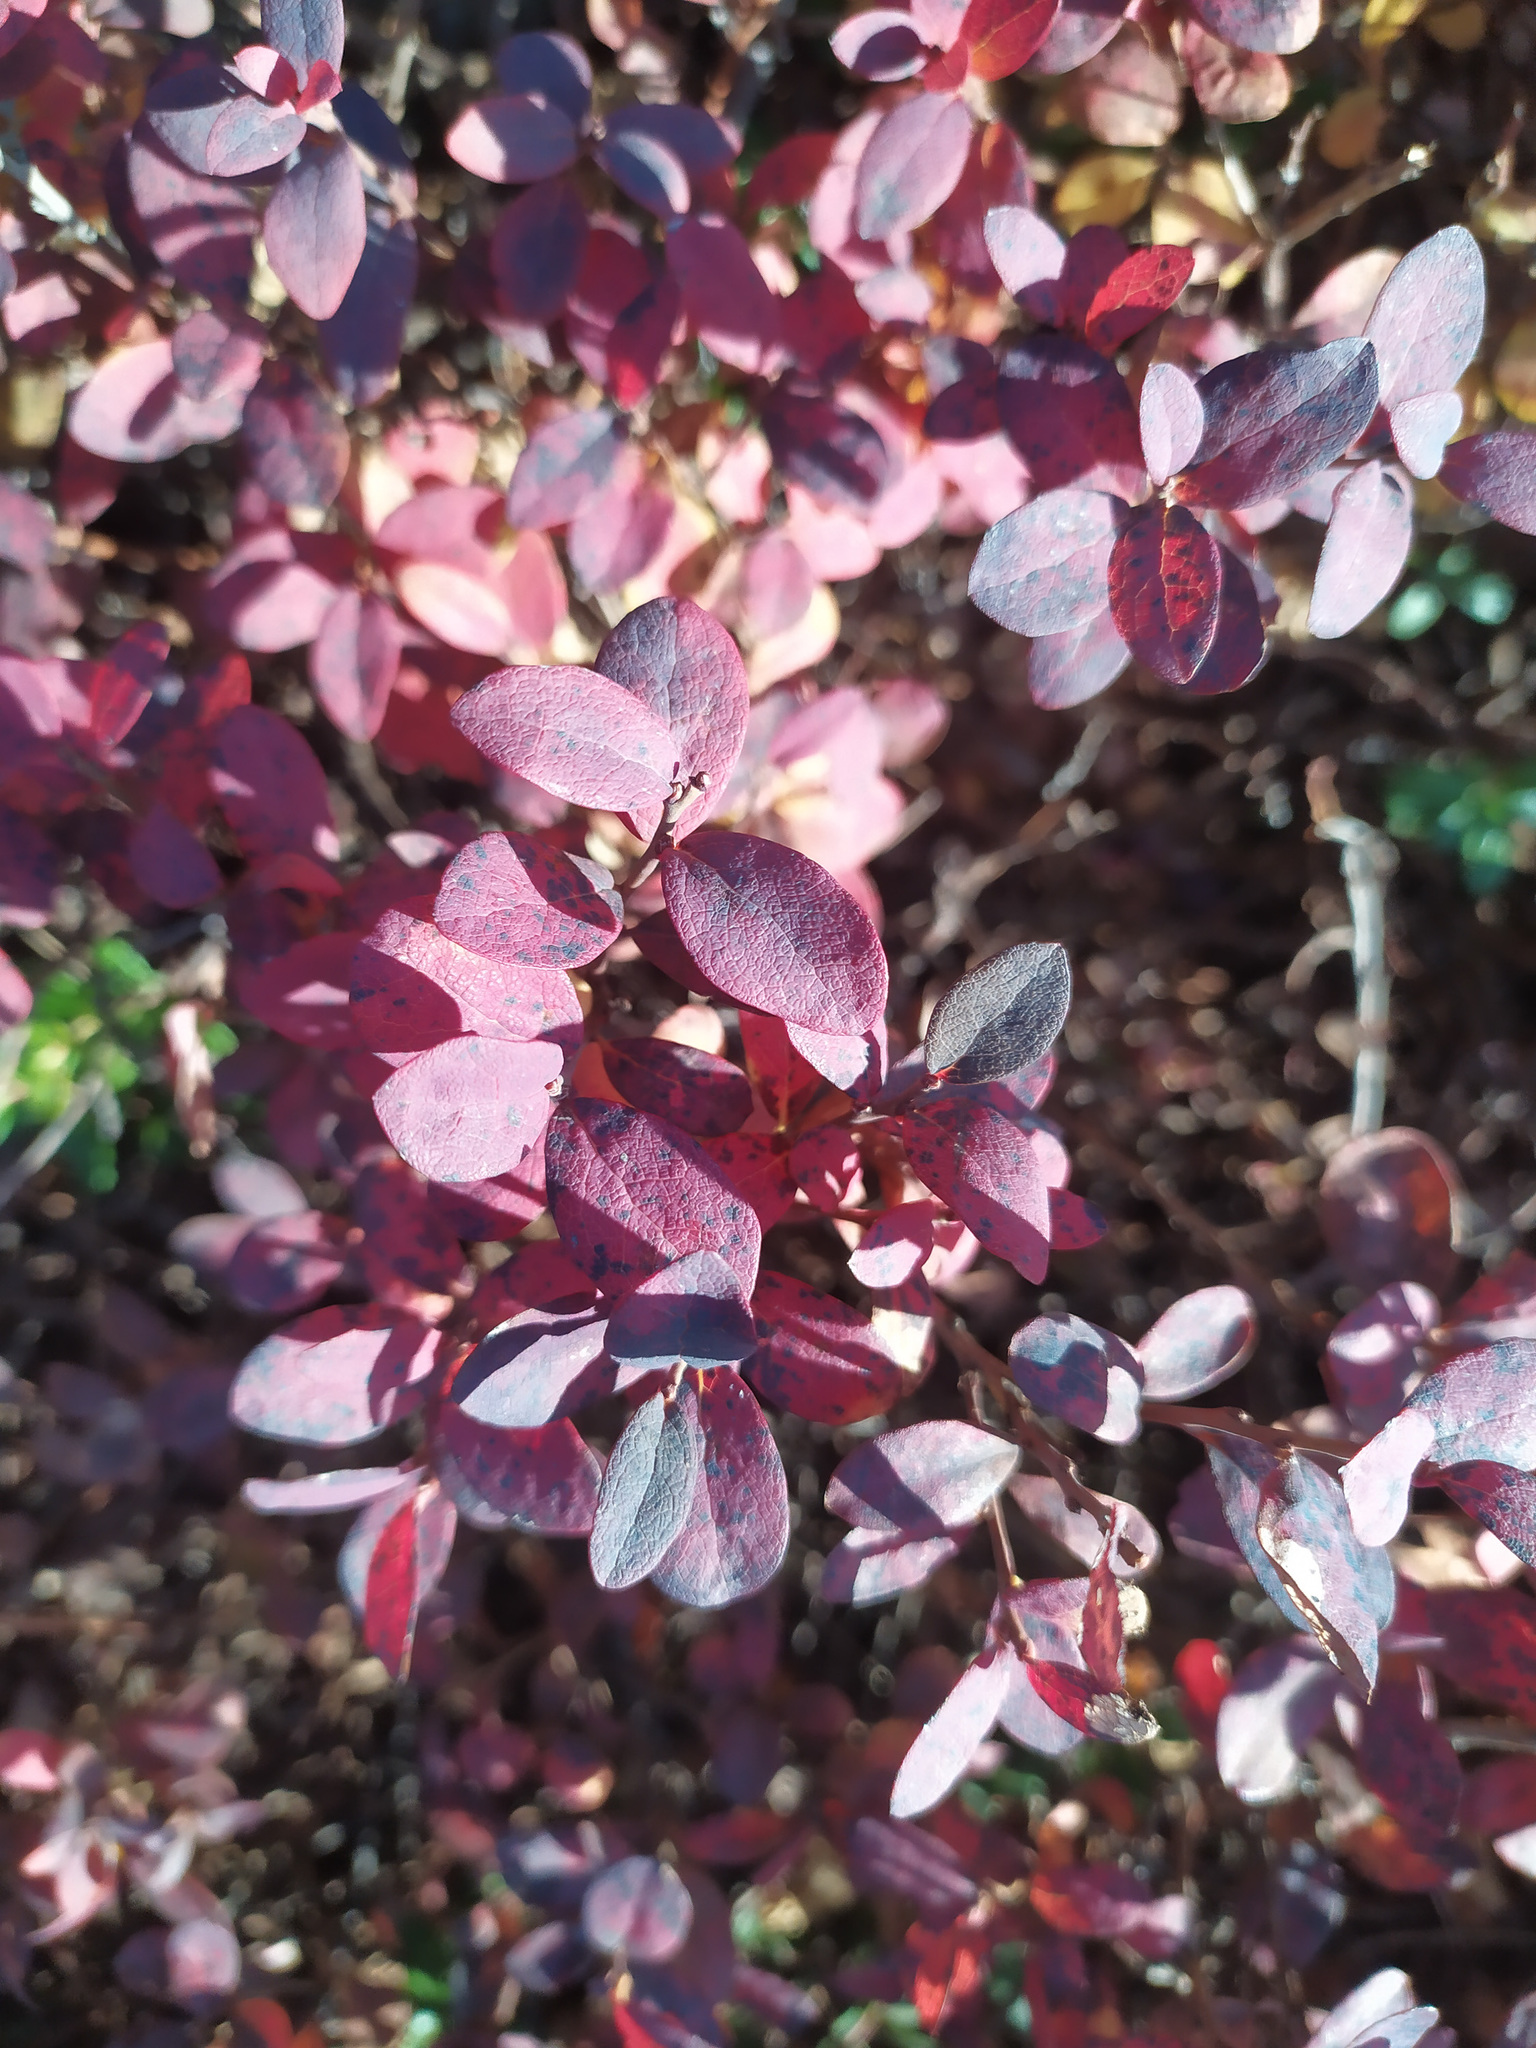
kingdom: Plantae
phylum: Tracheophyta
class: Magnoliopsida
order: Ericales
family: Ericaceae
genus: Vaccinium
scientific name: Vaccinium uliginosum
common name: Bog bilberry
